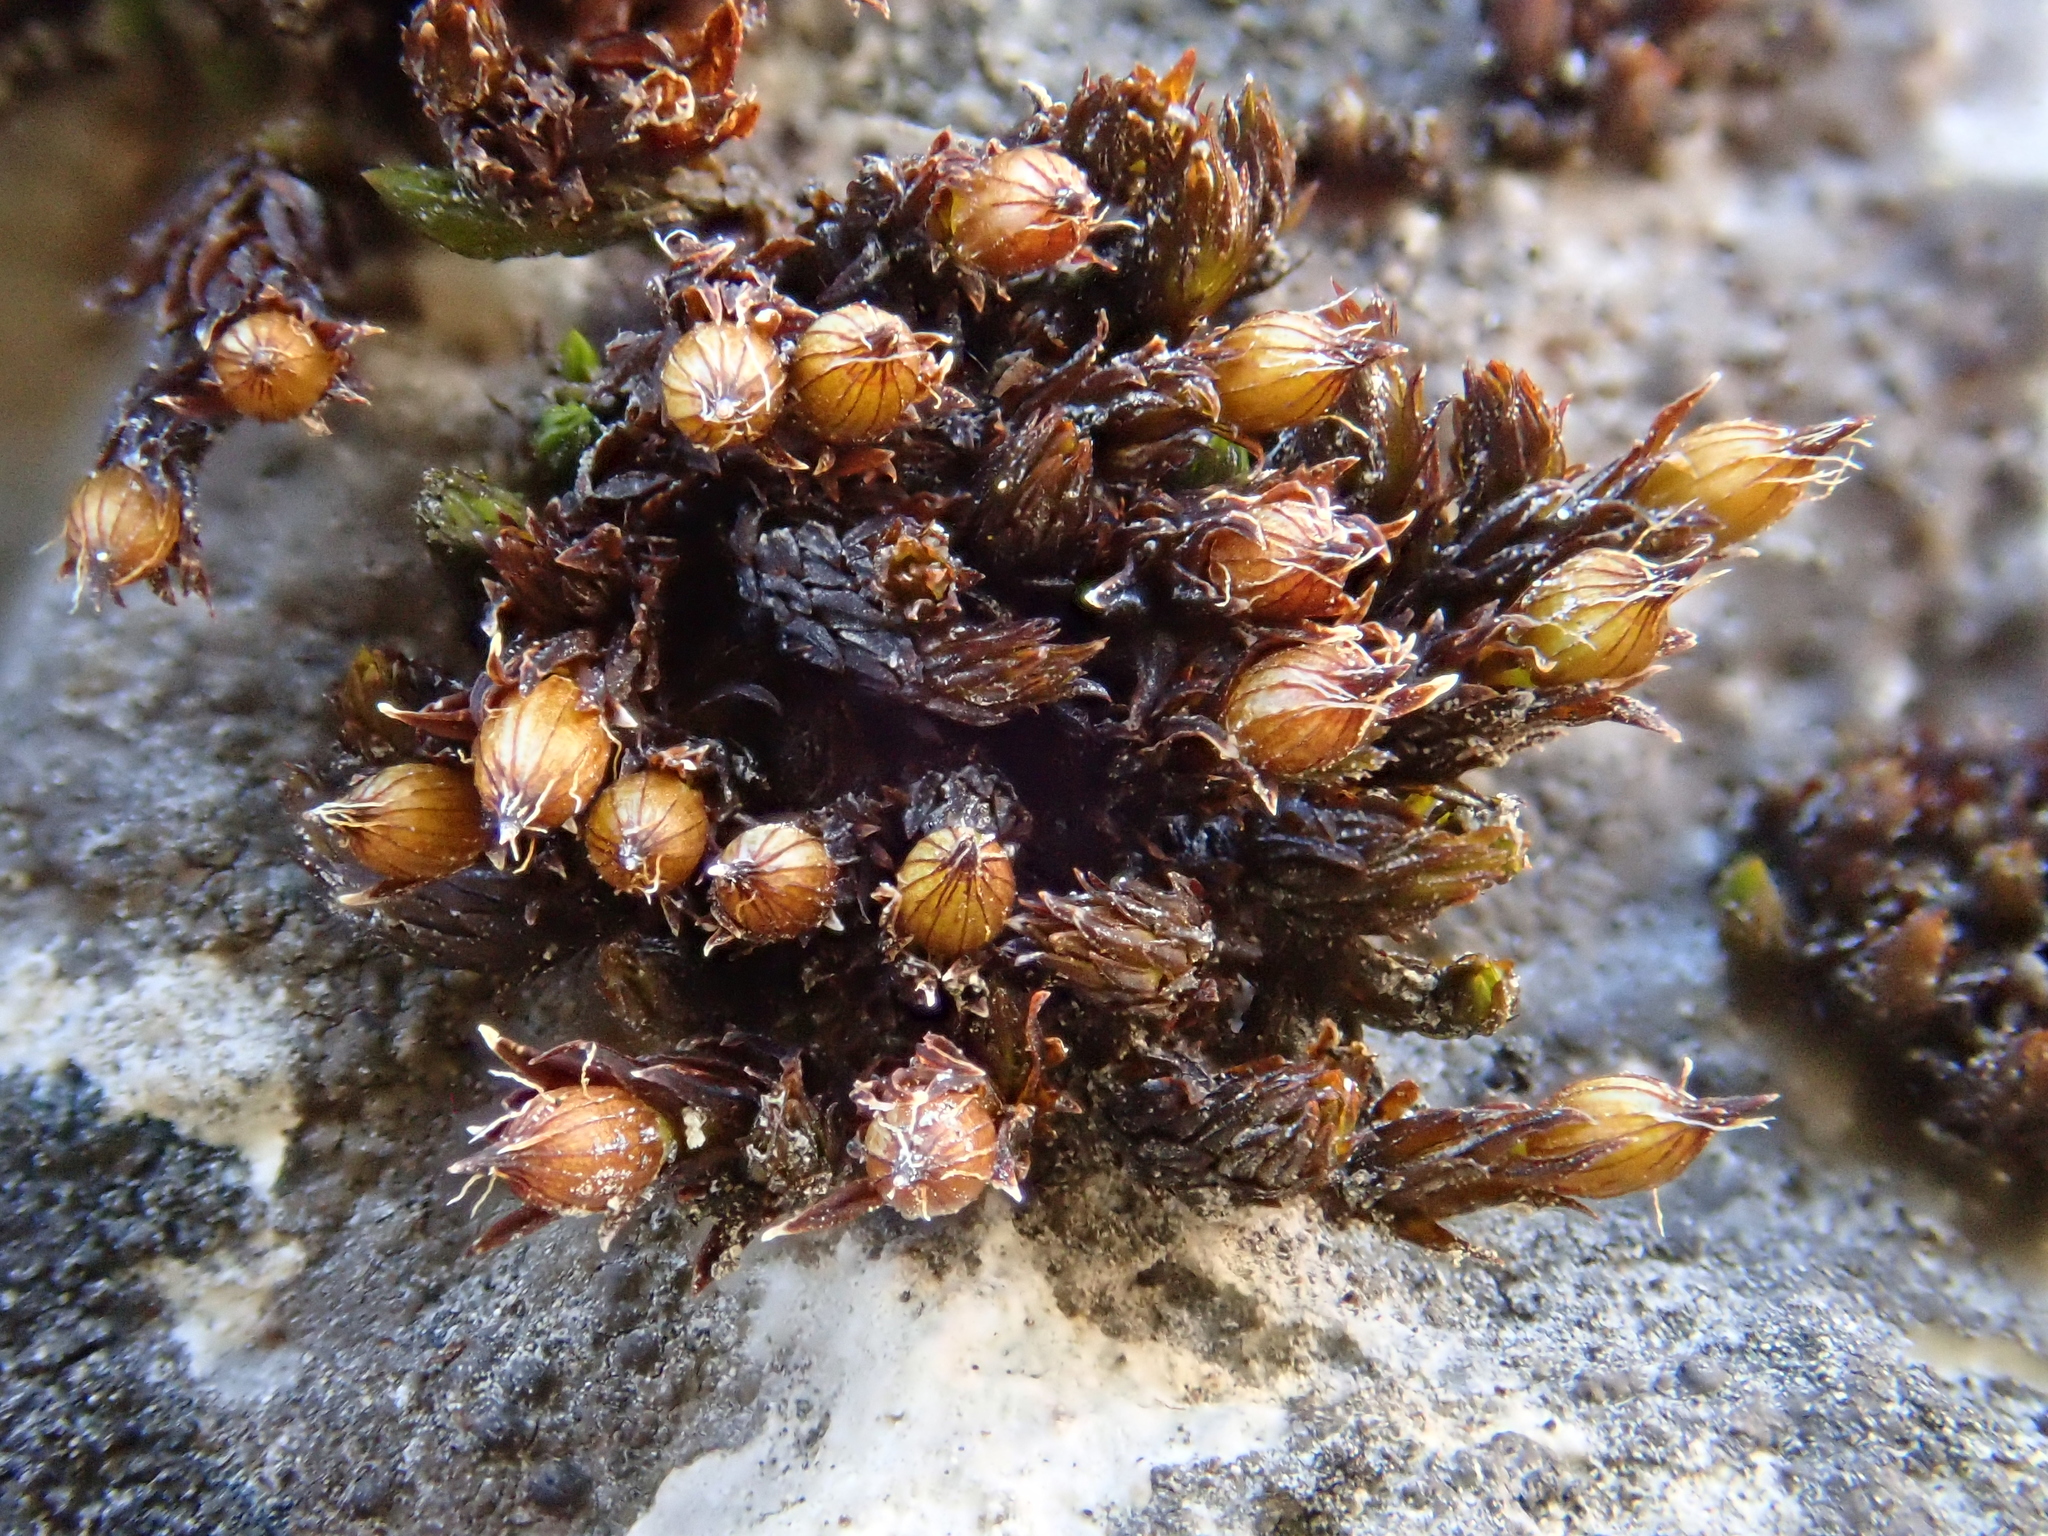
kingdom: Plantae
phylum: Bryophyta
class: Bryopsida
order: Orthotrichales
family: Orthotrichaceae
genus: Orthotrichum
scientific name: Orthotrichum cupulatum
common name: Hooded bristle-moss
